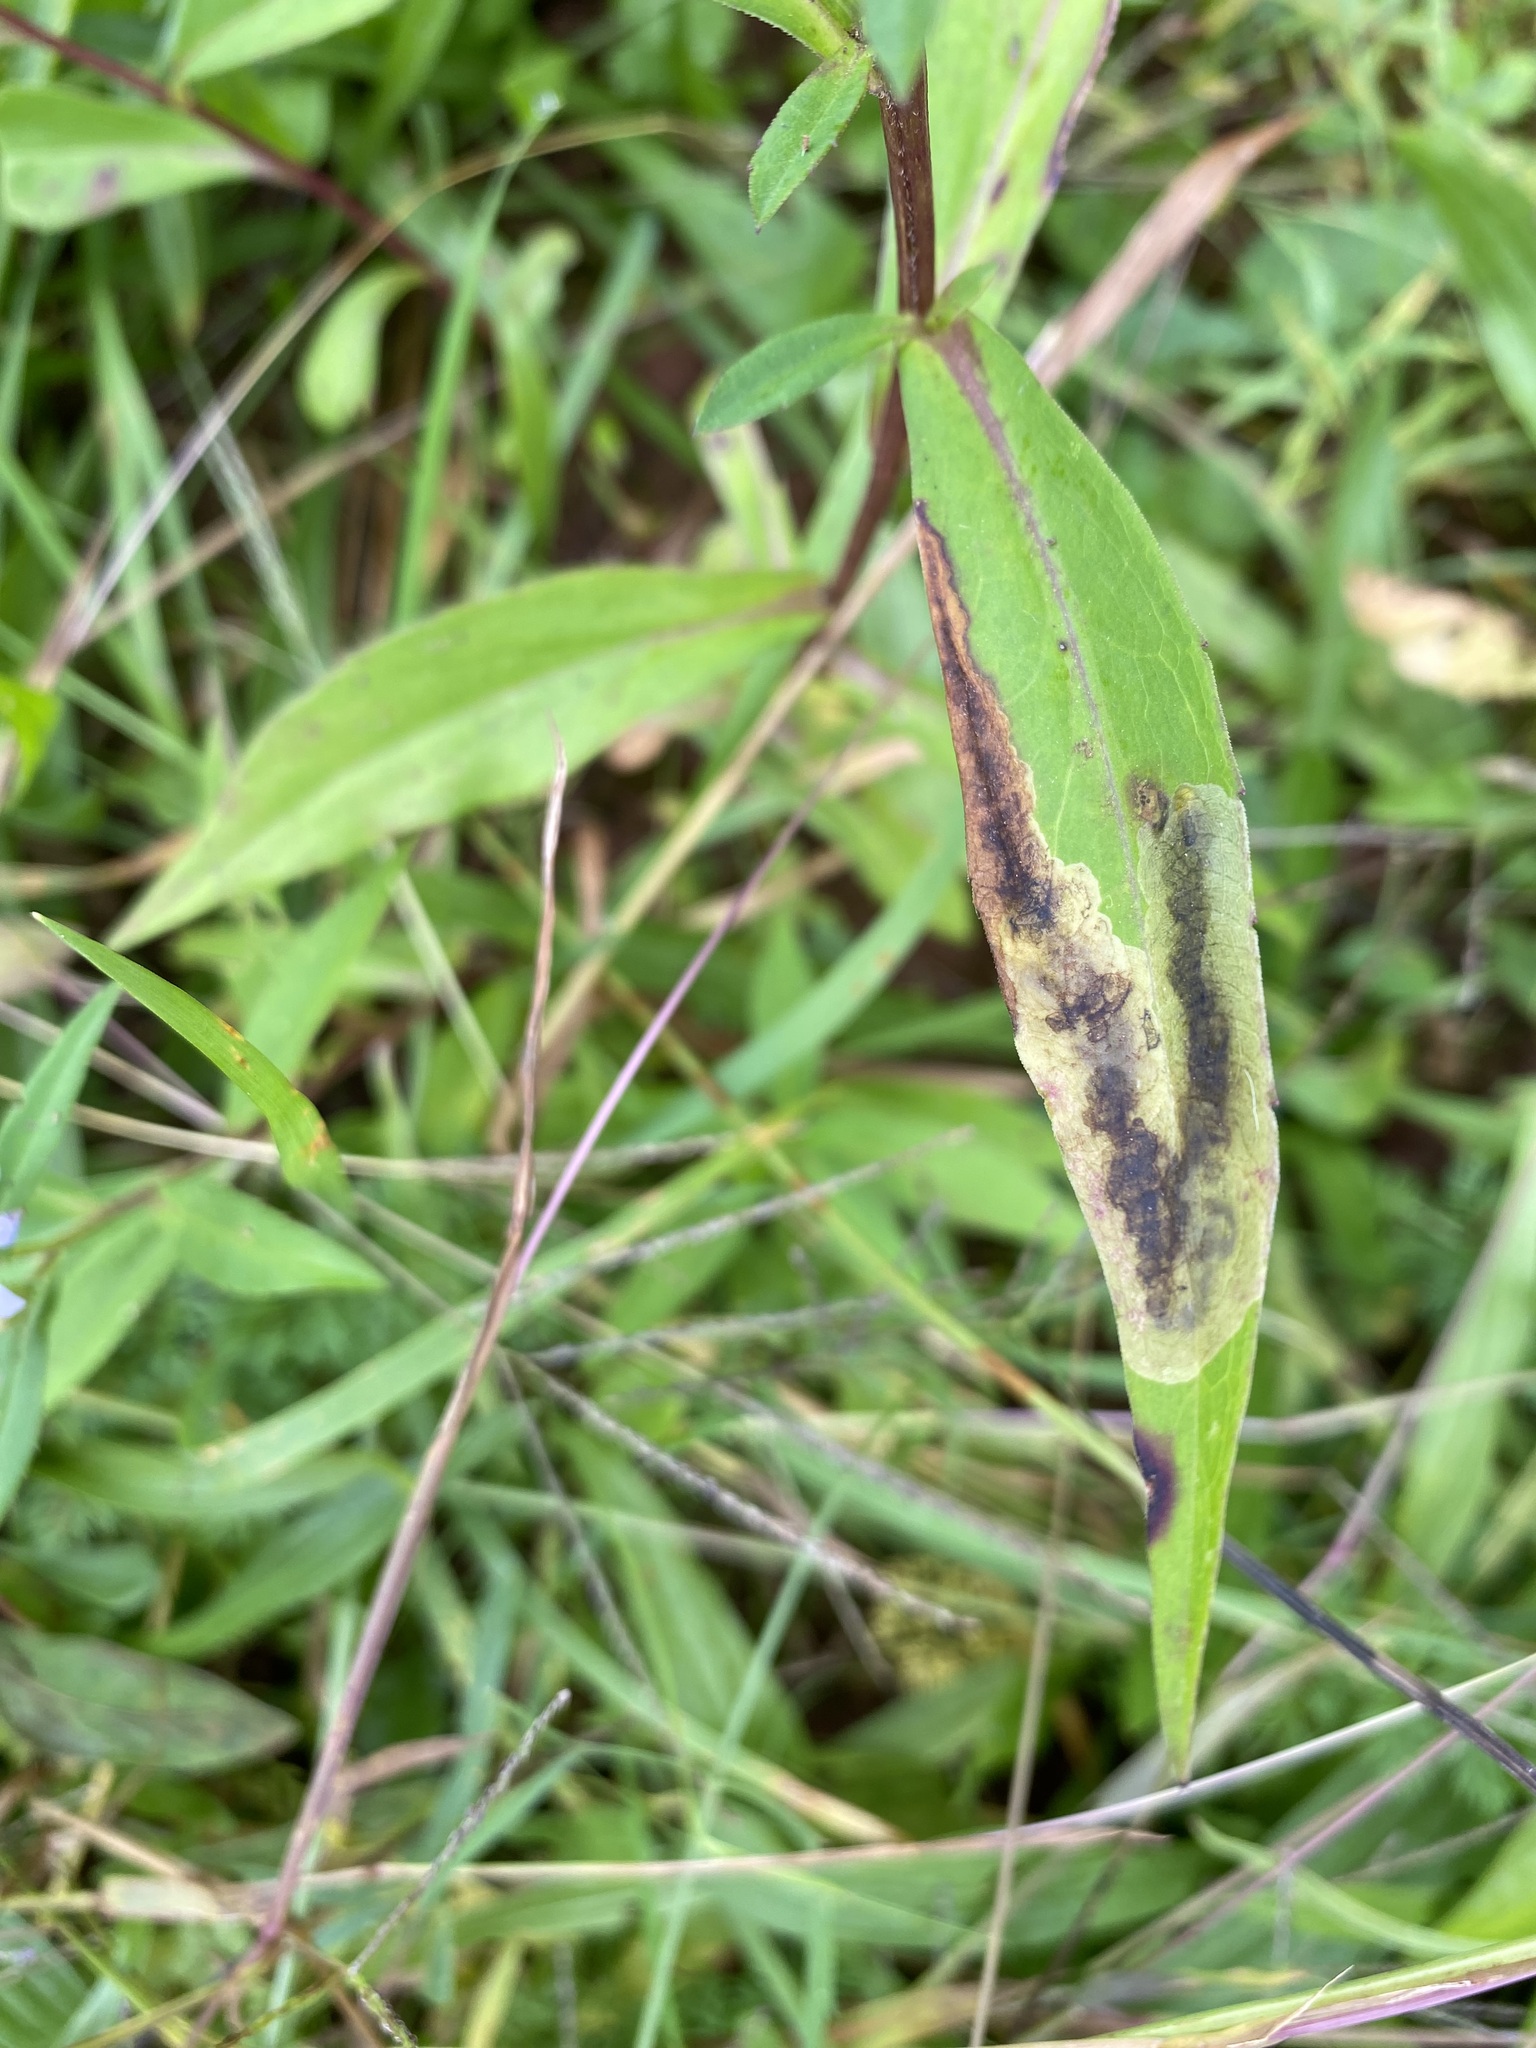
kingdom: Animalia
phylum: Arthropoda
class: Insecta
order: Diptera
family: Agromyzidae
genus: Nemorimyza
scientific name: Nemorimyza posticata
